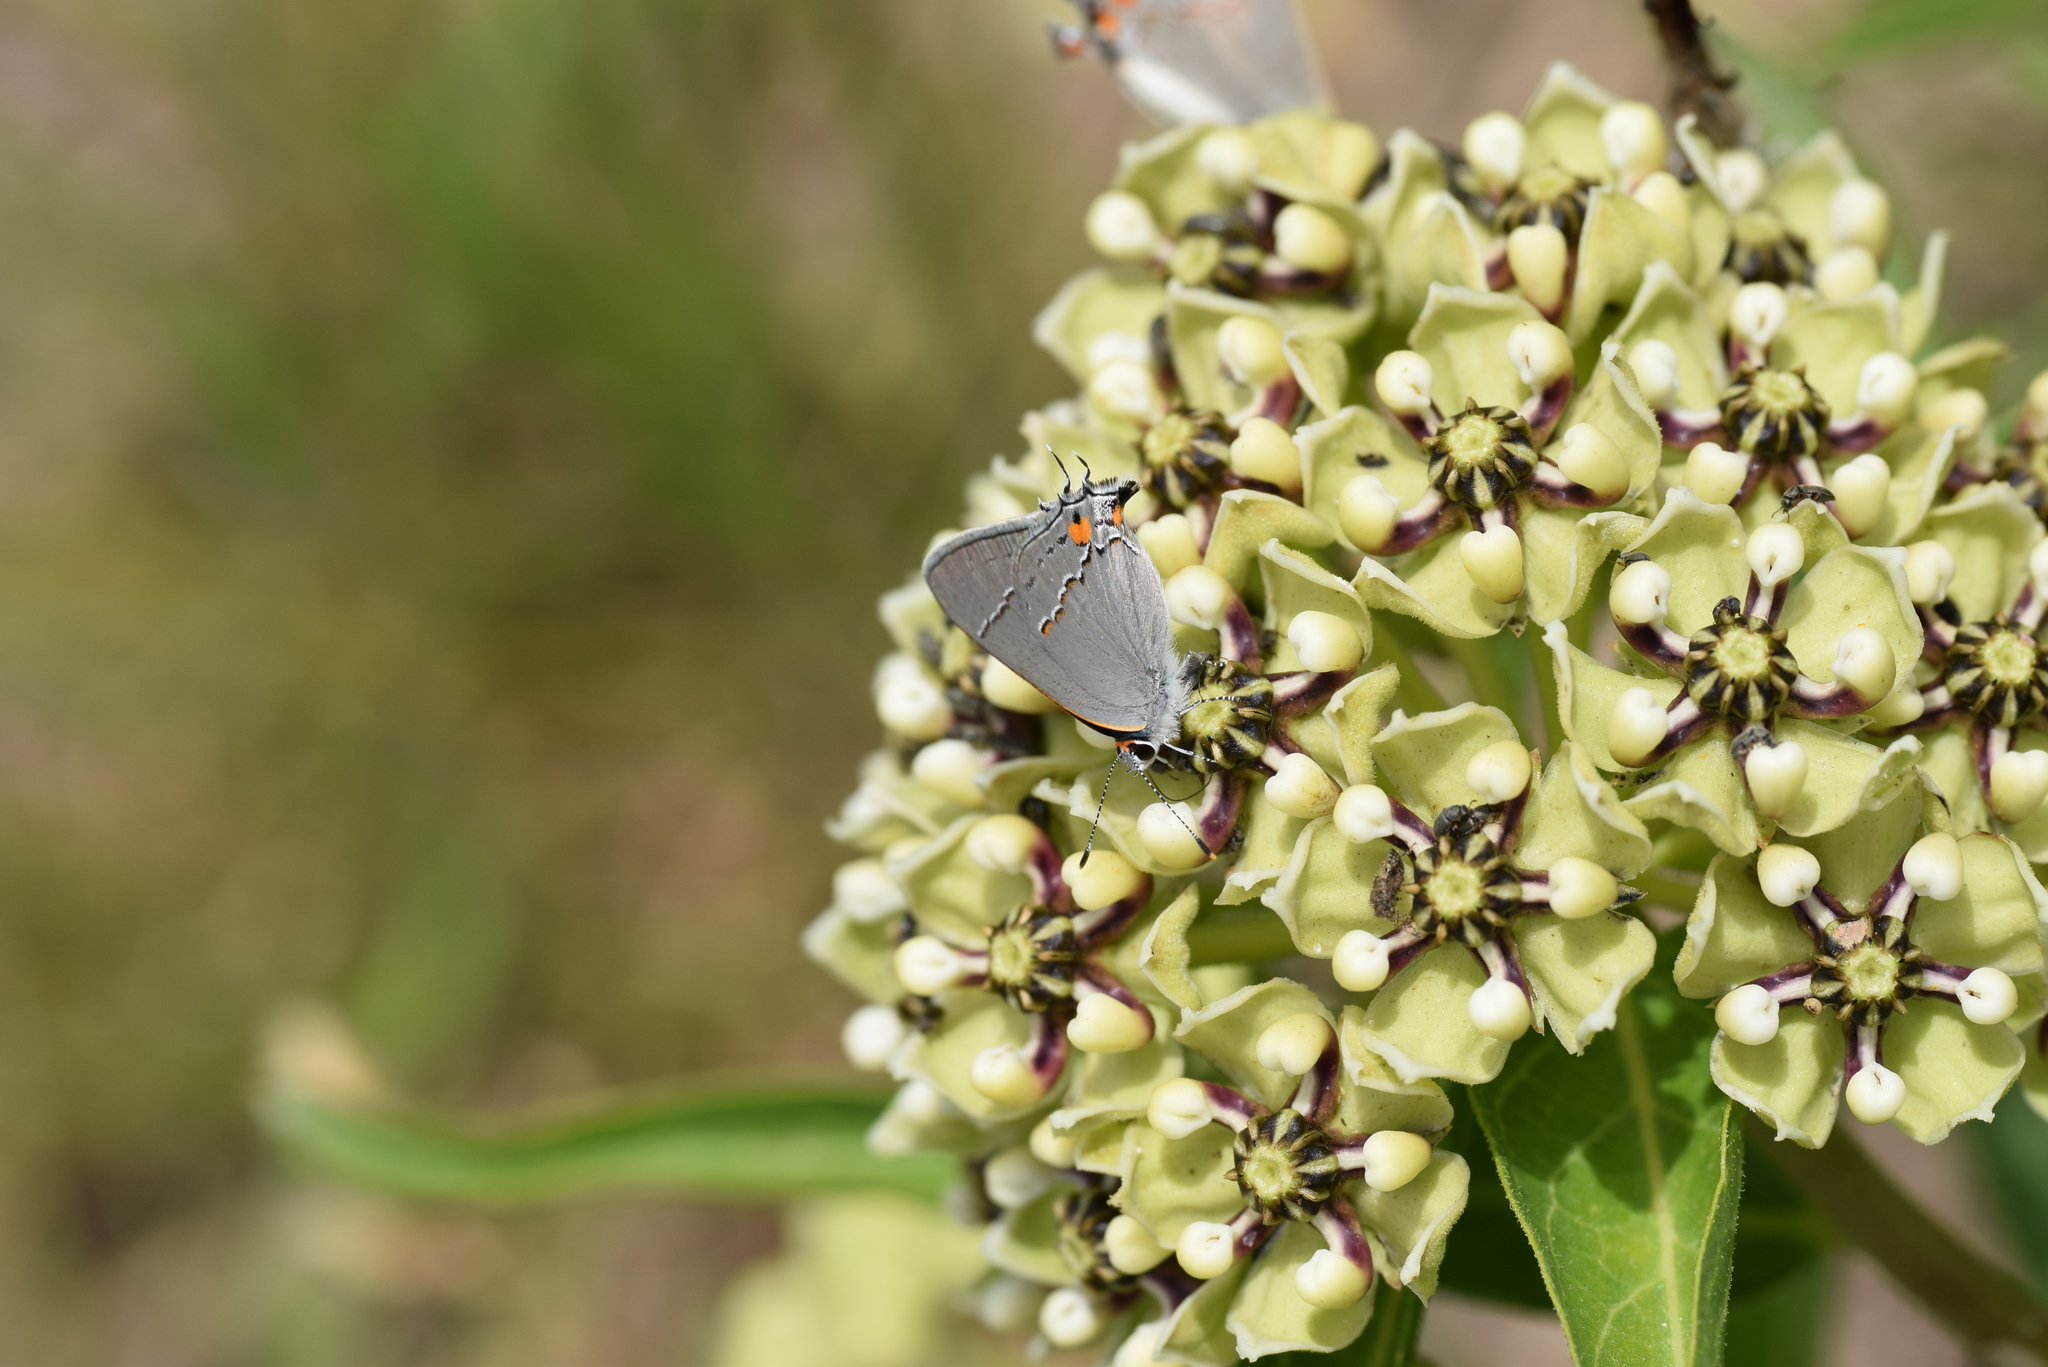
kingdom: Animalia
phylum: Arthropoda
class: Insecta
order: Lepidoptera
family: Lycaenidae
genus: Strymon
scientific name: Strymon melinus
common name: Gray hairstreak
